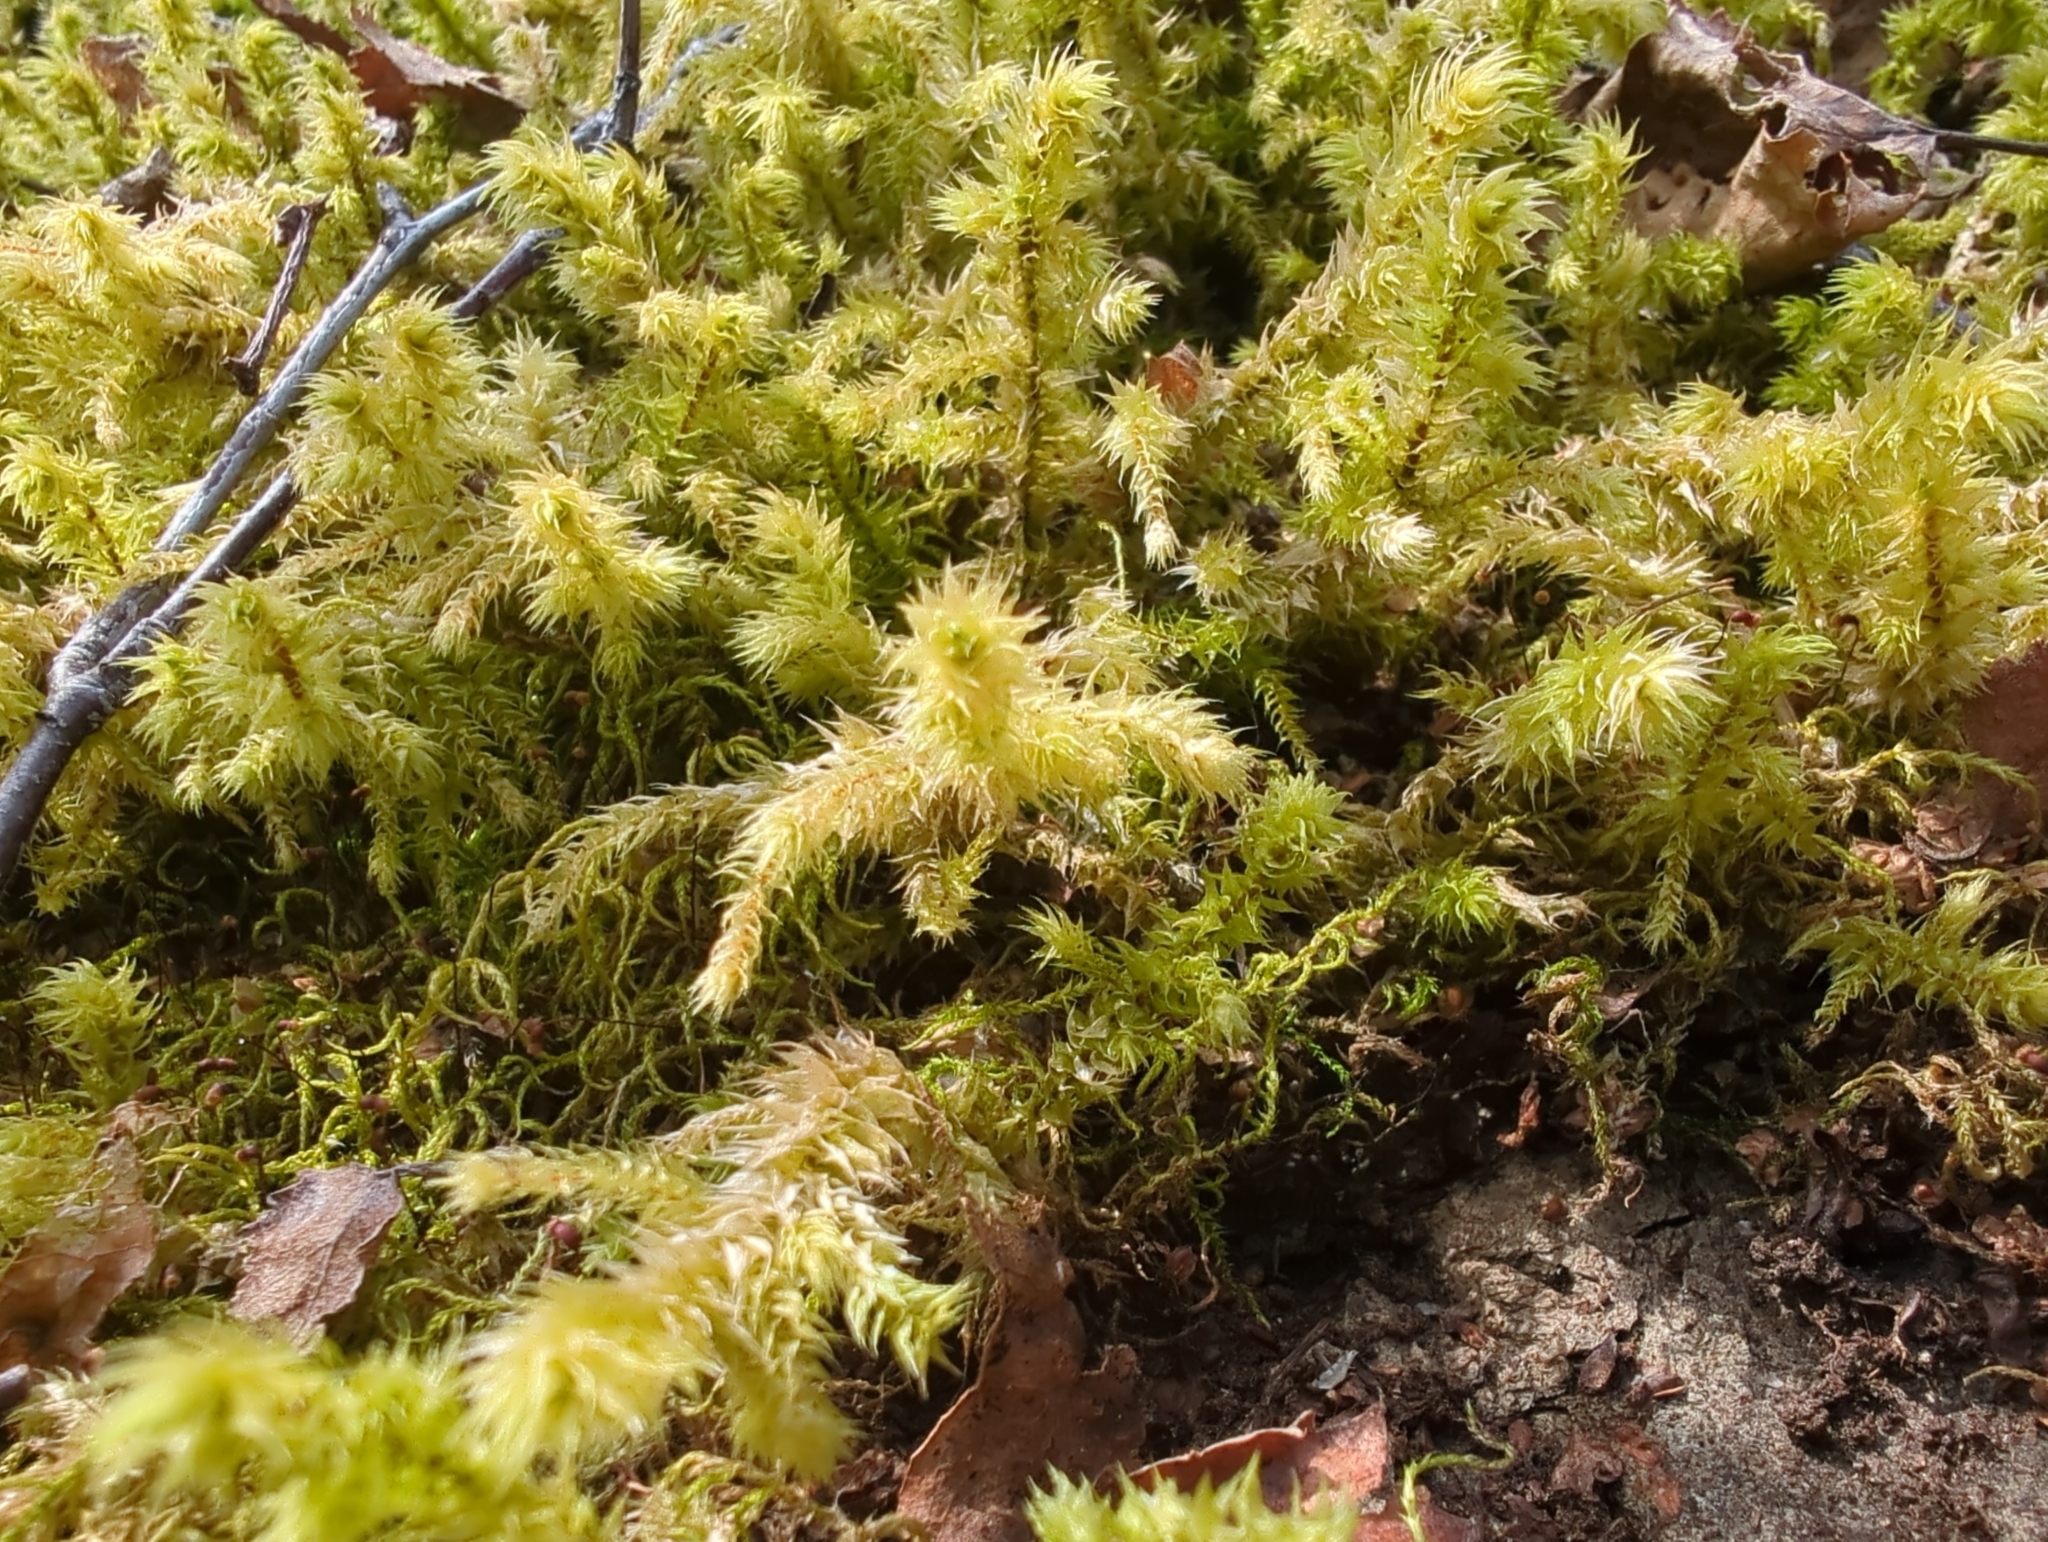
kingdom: Plantae
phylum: Bryophyta
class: Bryopsida
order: Hypnales
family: Hylocomiaceae
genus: Hylocomiadelphus
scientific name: Hylocomiadelphus triquetrus
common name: Rough goose neck moss
